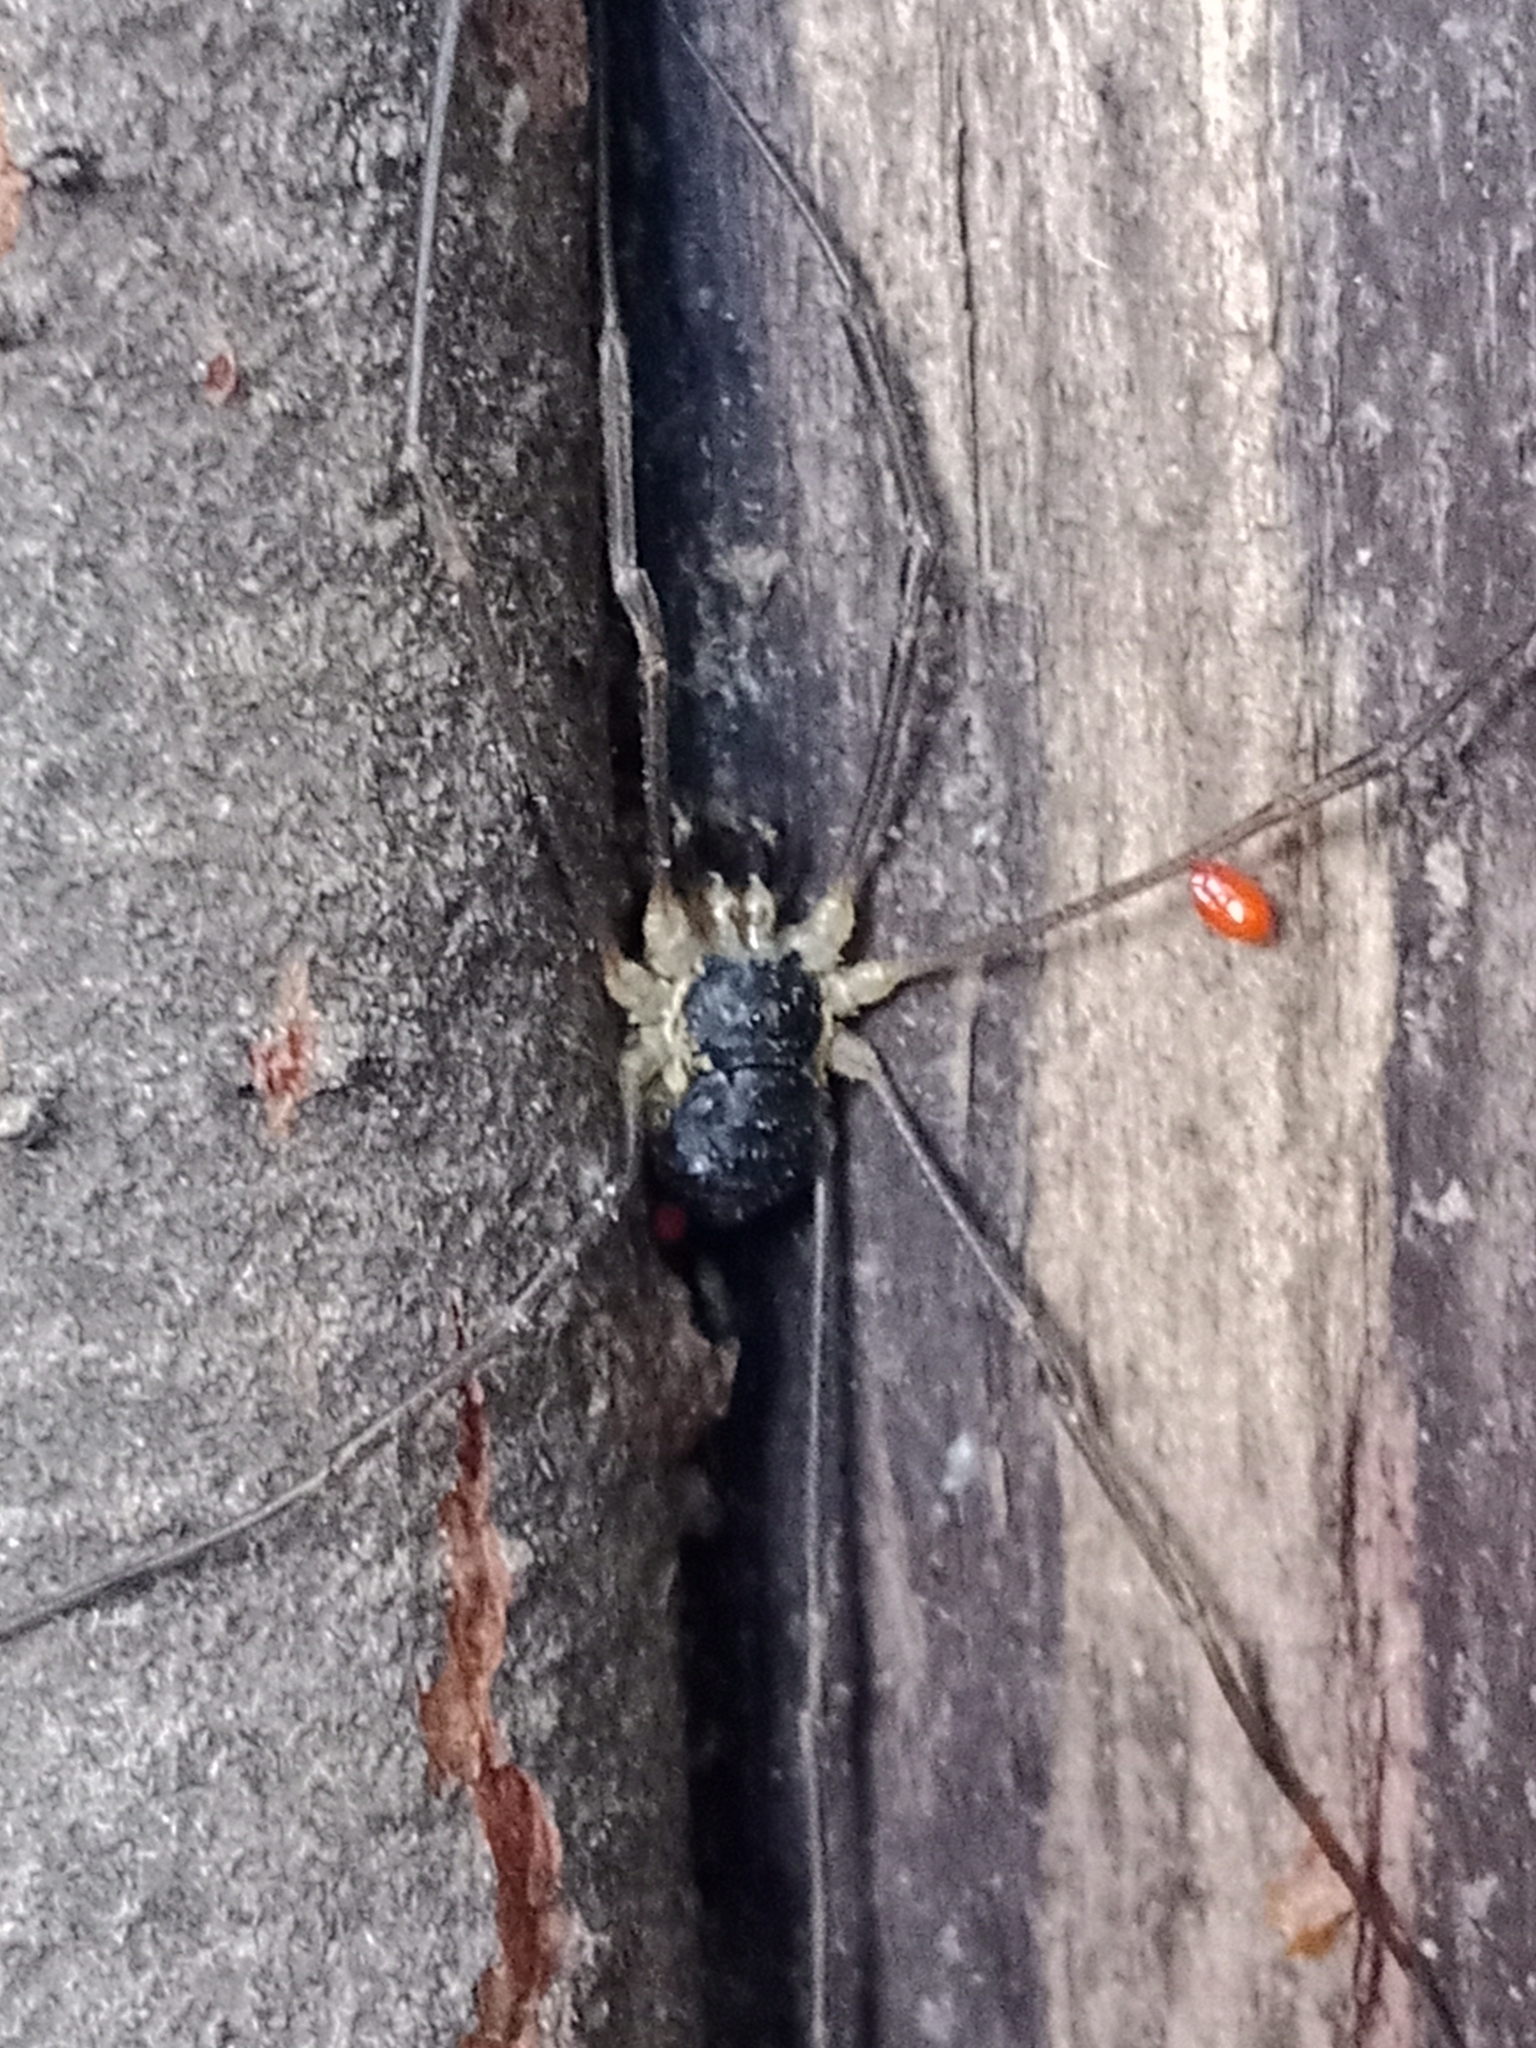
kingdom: Animalia
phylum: Arthropoda
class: Arachnida
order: Opiliones
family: Phalangiidae
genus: Mitopus
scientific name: Mitopus morio
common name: Saddleback harvestman
